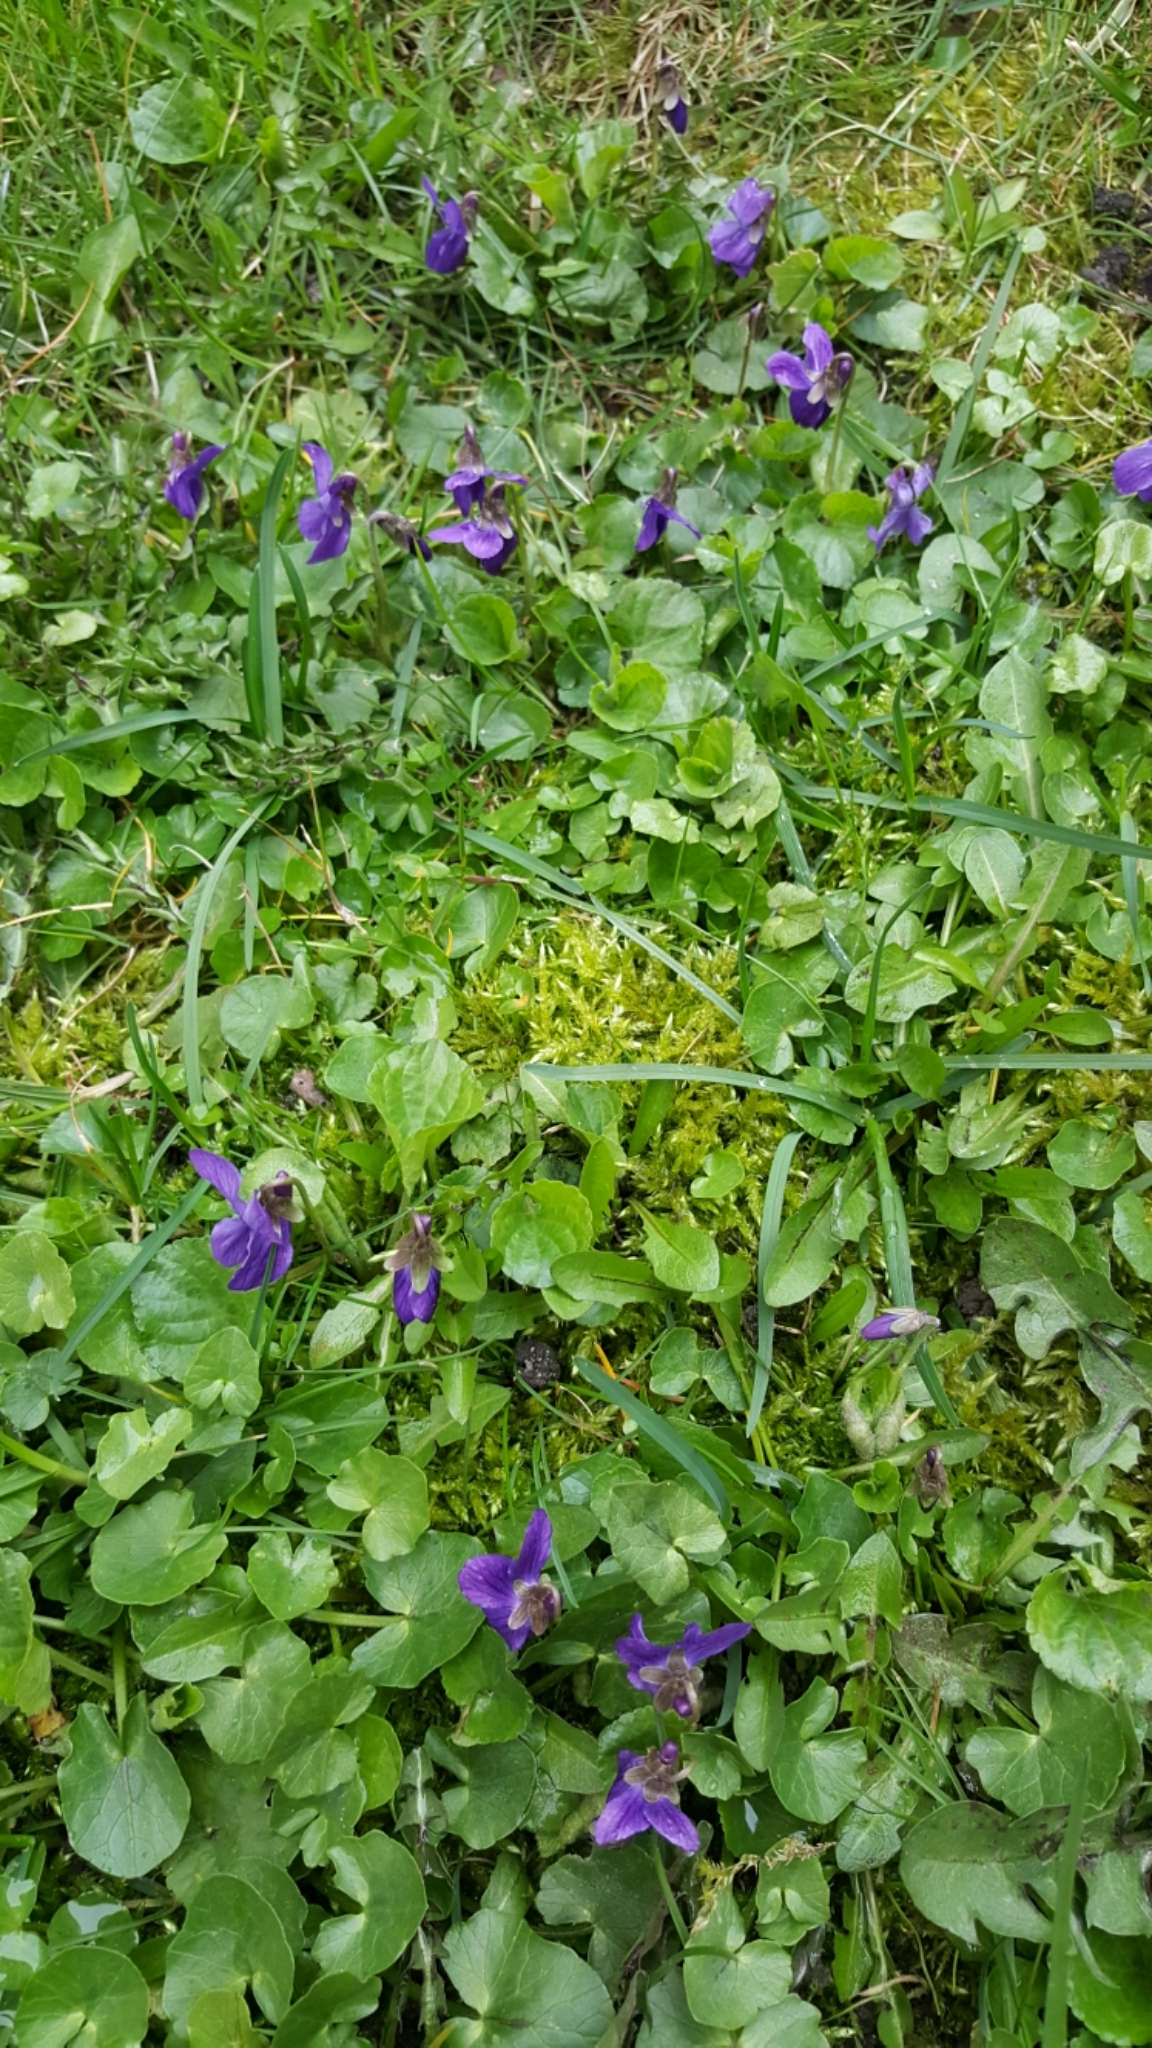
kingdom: Plantae
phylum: Tracheophyta
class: Magnoliopsida
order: Malpighiales
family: Violaceae
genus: Viola
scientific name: Viola odorata
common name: Sweet violet
